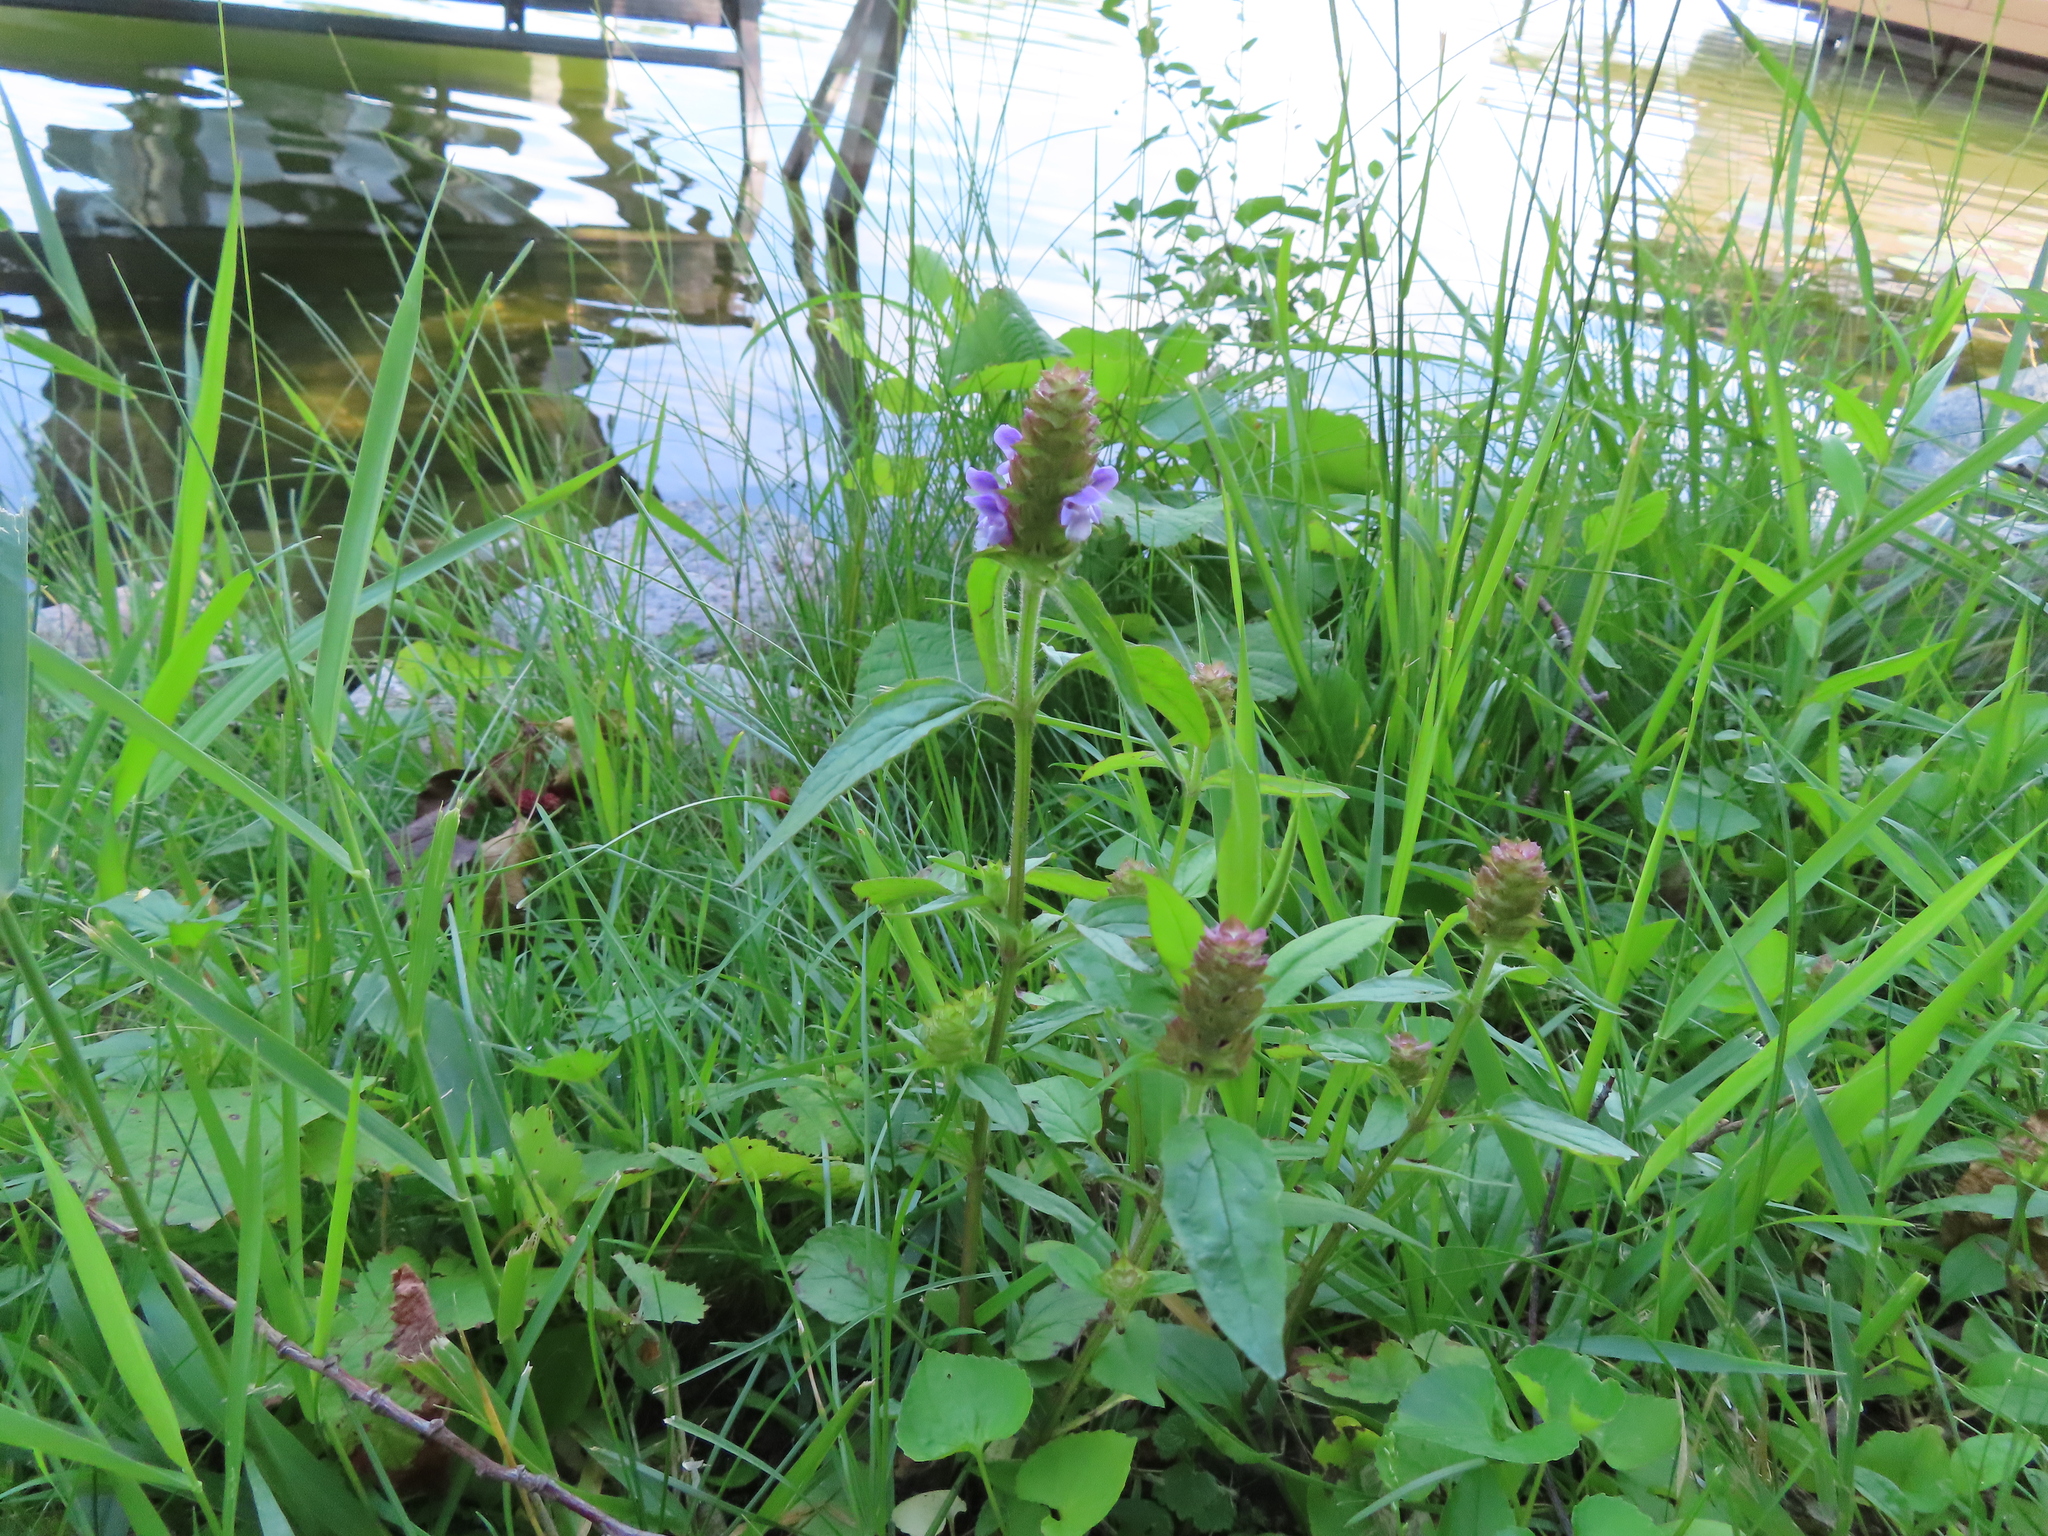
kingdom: Plantae
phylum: Tracheophyta
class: Magnoliopsida
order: Lamiales
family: Lamiaceae
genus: Prunella
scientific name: Prunella vulgaris
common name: Heal-all
